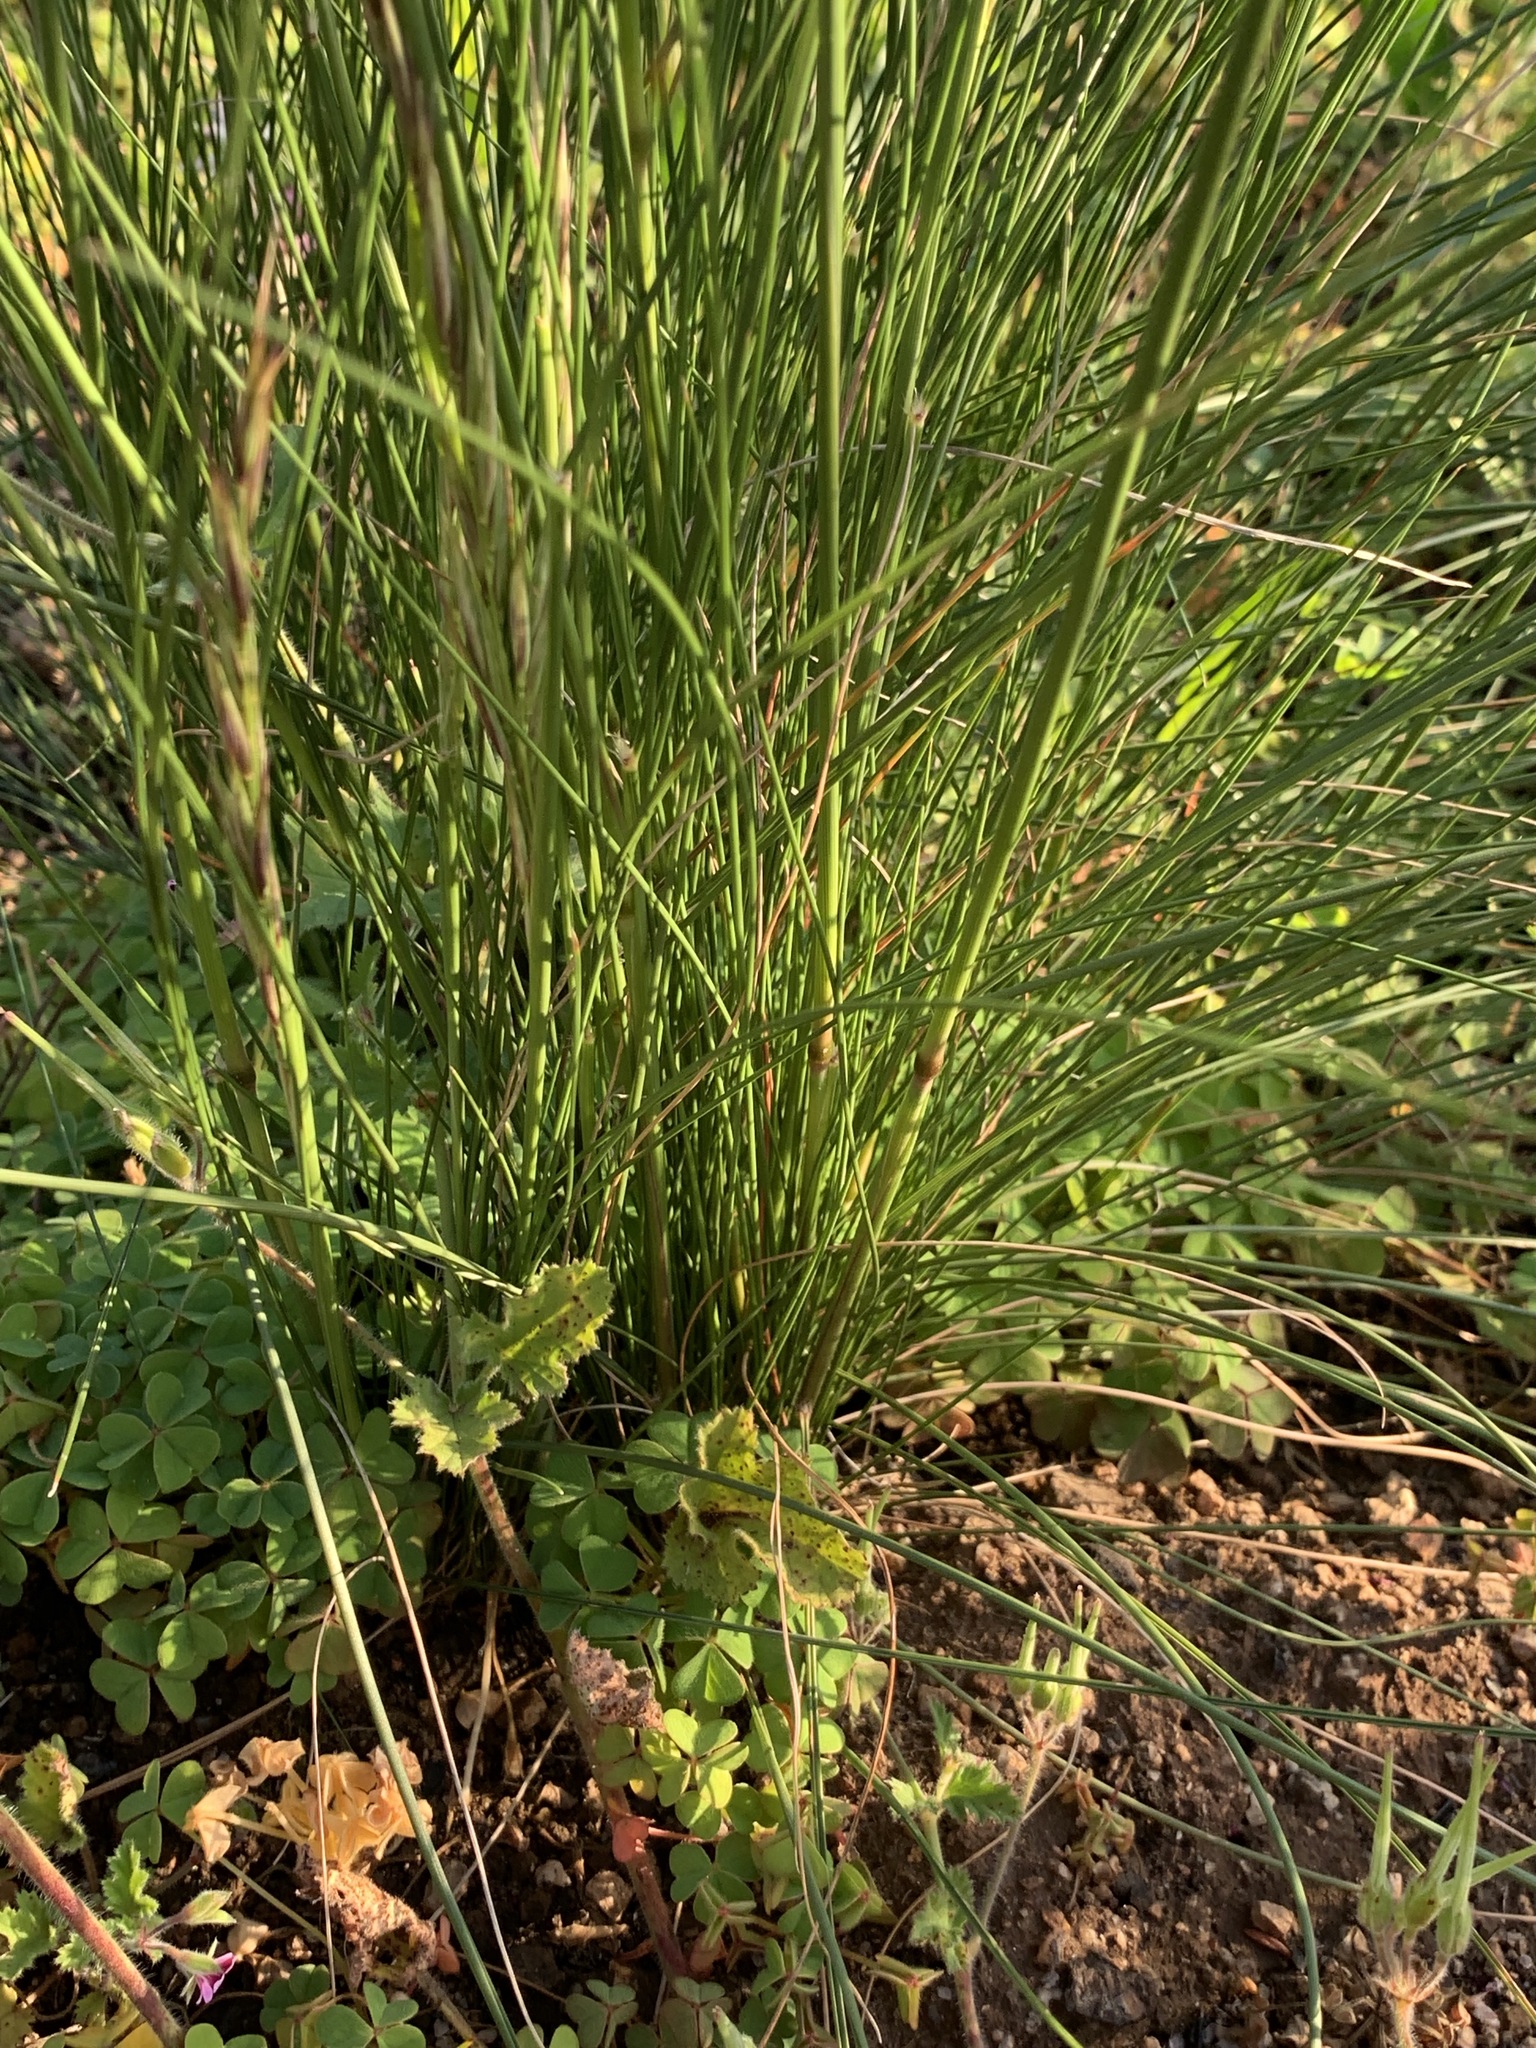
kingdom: Plantae
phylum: Tracheophyta
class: Liliopsida
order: Poales
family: Poaceae
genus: Tenaxia
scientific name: Tenaxia stricta
